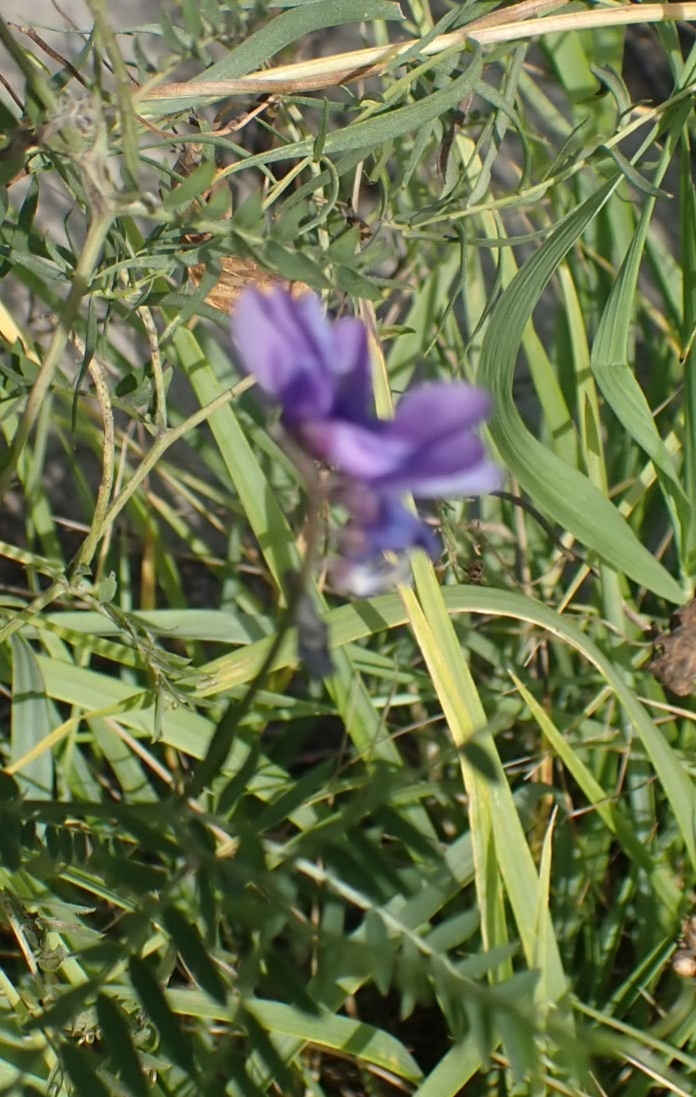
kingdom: Plantae
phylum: Tracheophyta
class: Magnoliopsida
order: Fabales
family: Fabaceae
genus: Vicia
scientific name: Vicia cracca
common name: Bird vetch
